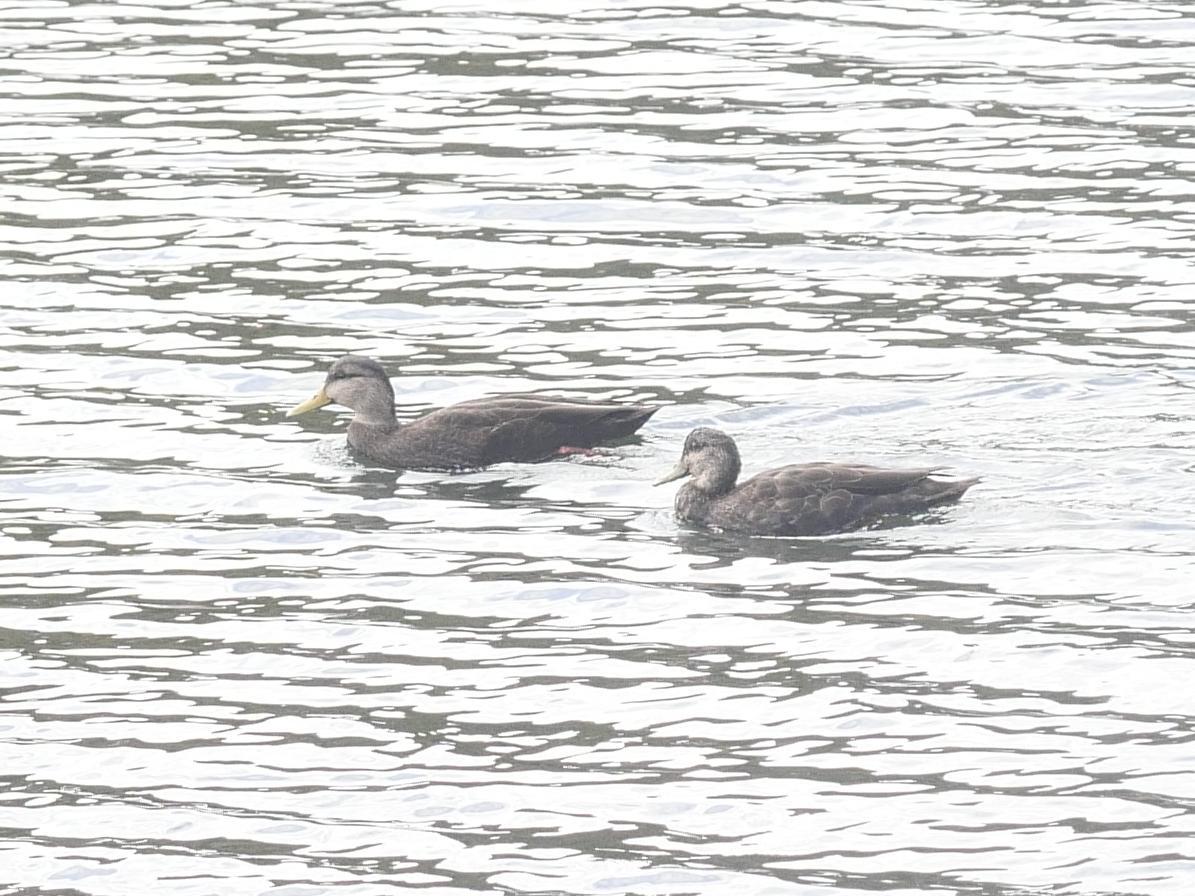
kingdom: Animalia
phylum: Chordata
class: Aves
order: Anseriformes
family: Anatidae
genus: Anas
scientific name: Anas rubripes
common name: American black duck
